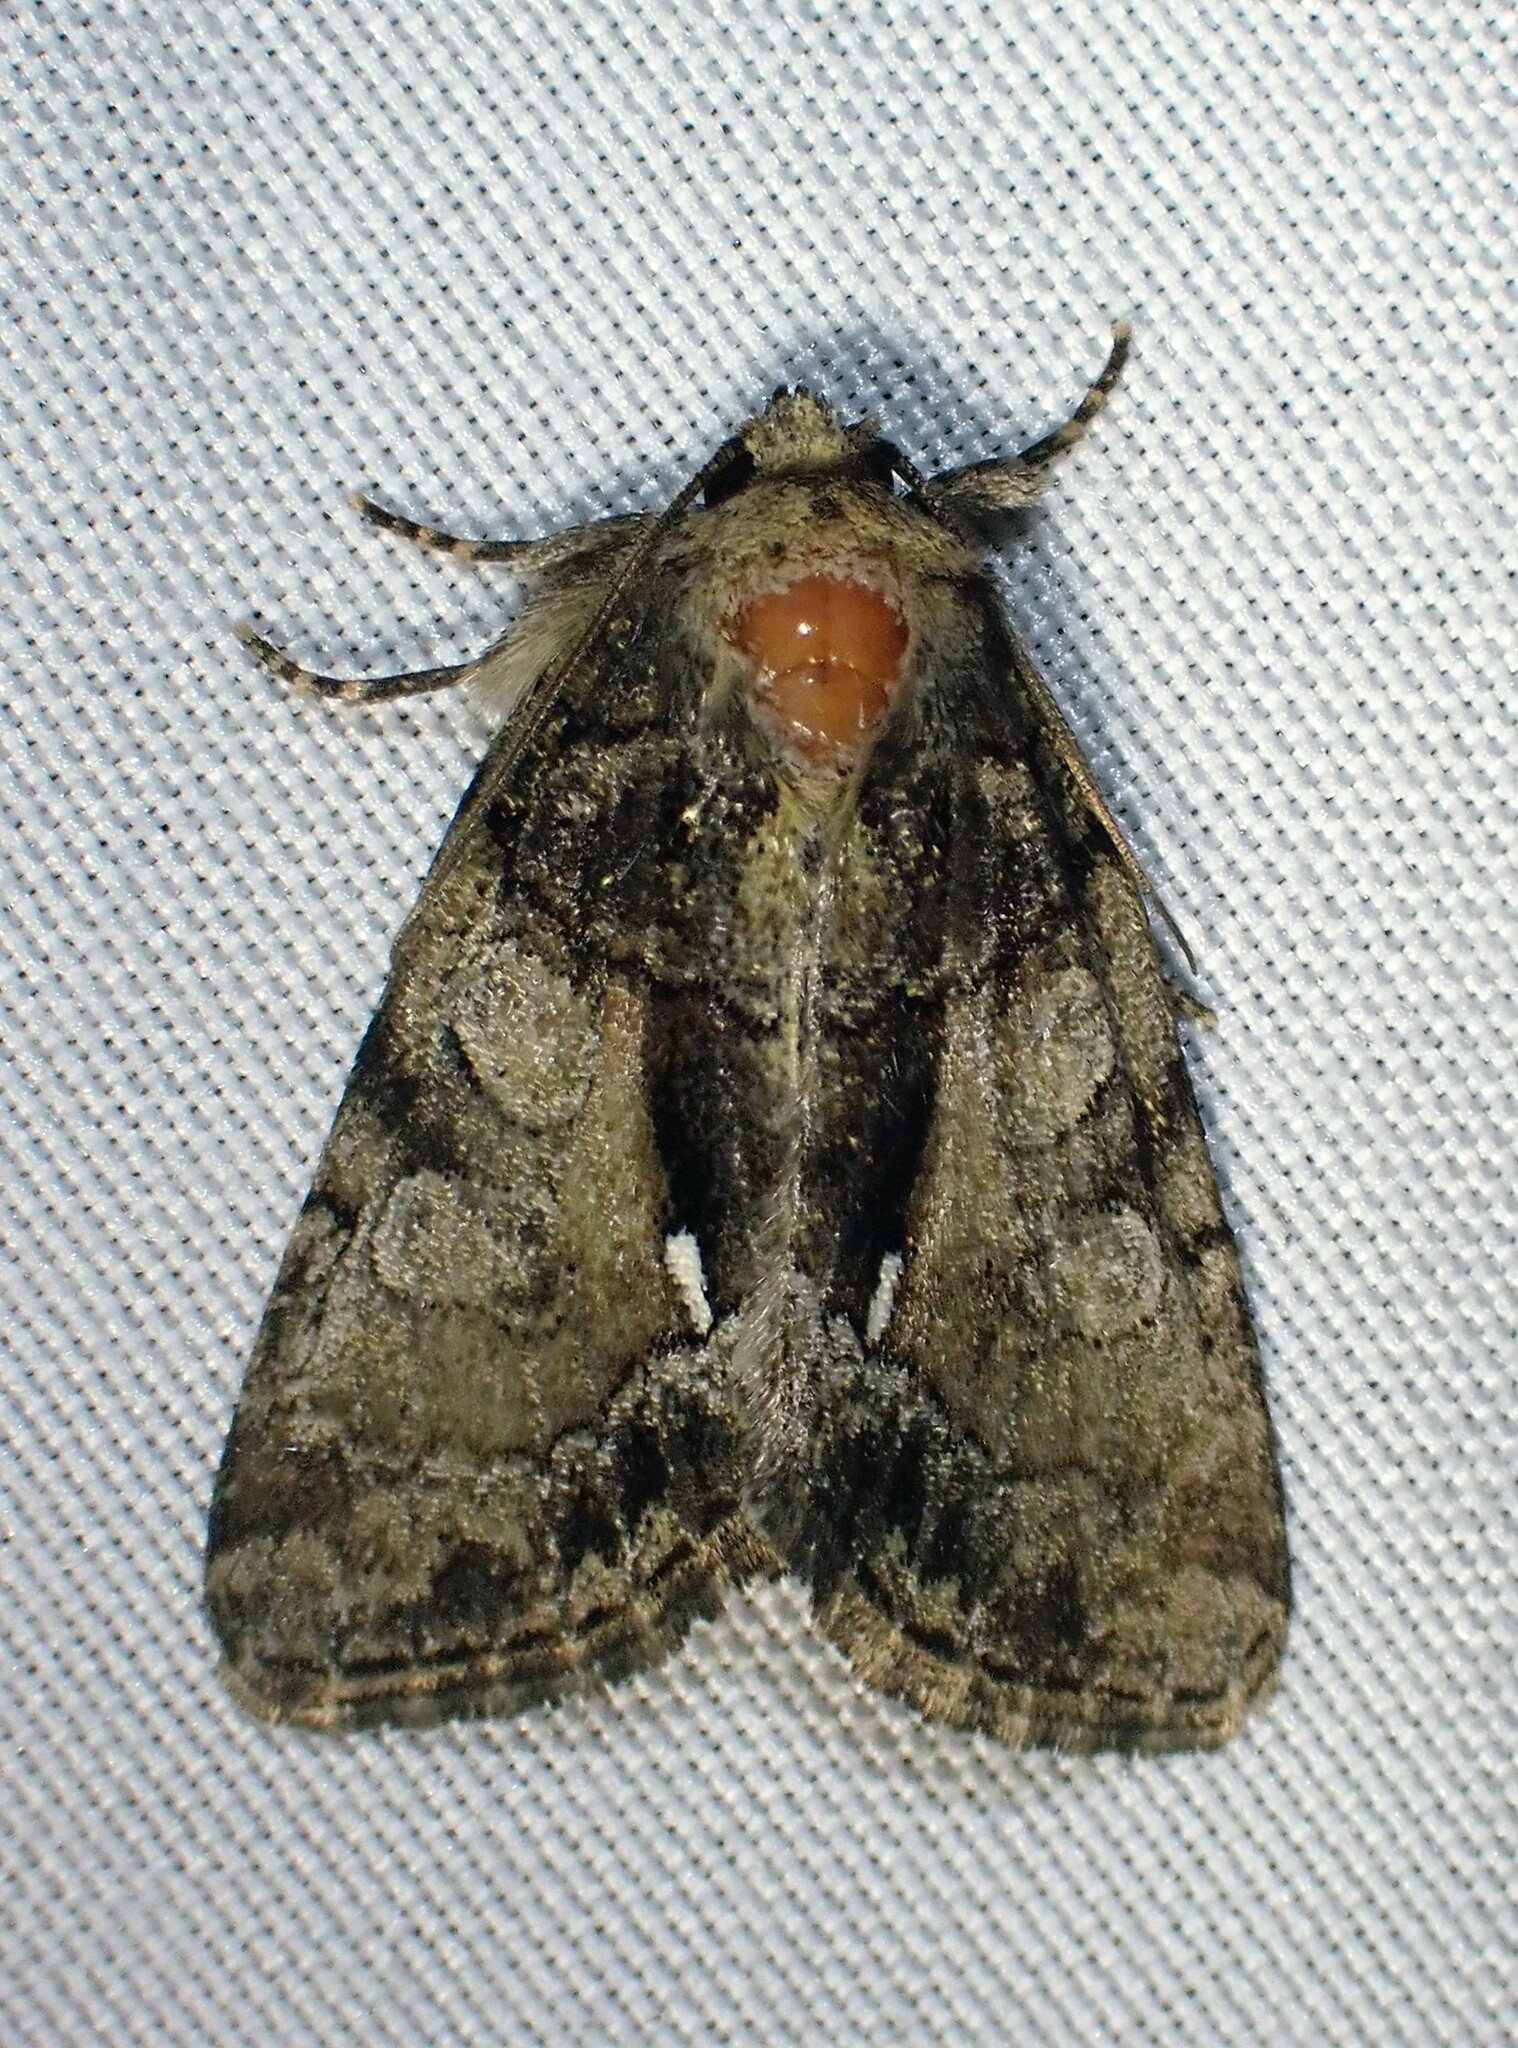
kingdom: Animalia
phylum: Arthropoda
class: Insecta
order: Lepidoptera
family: Noctuidae
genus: Chytonix
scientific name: Chytonix palliatricula
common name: Cloaked marvel
